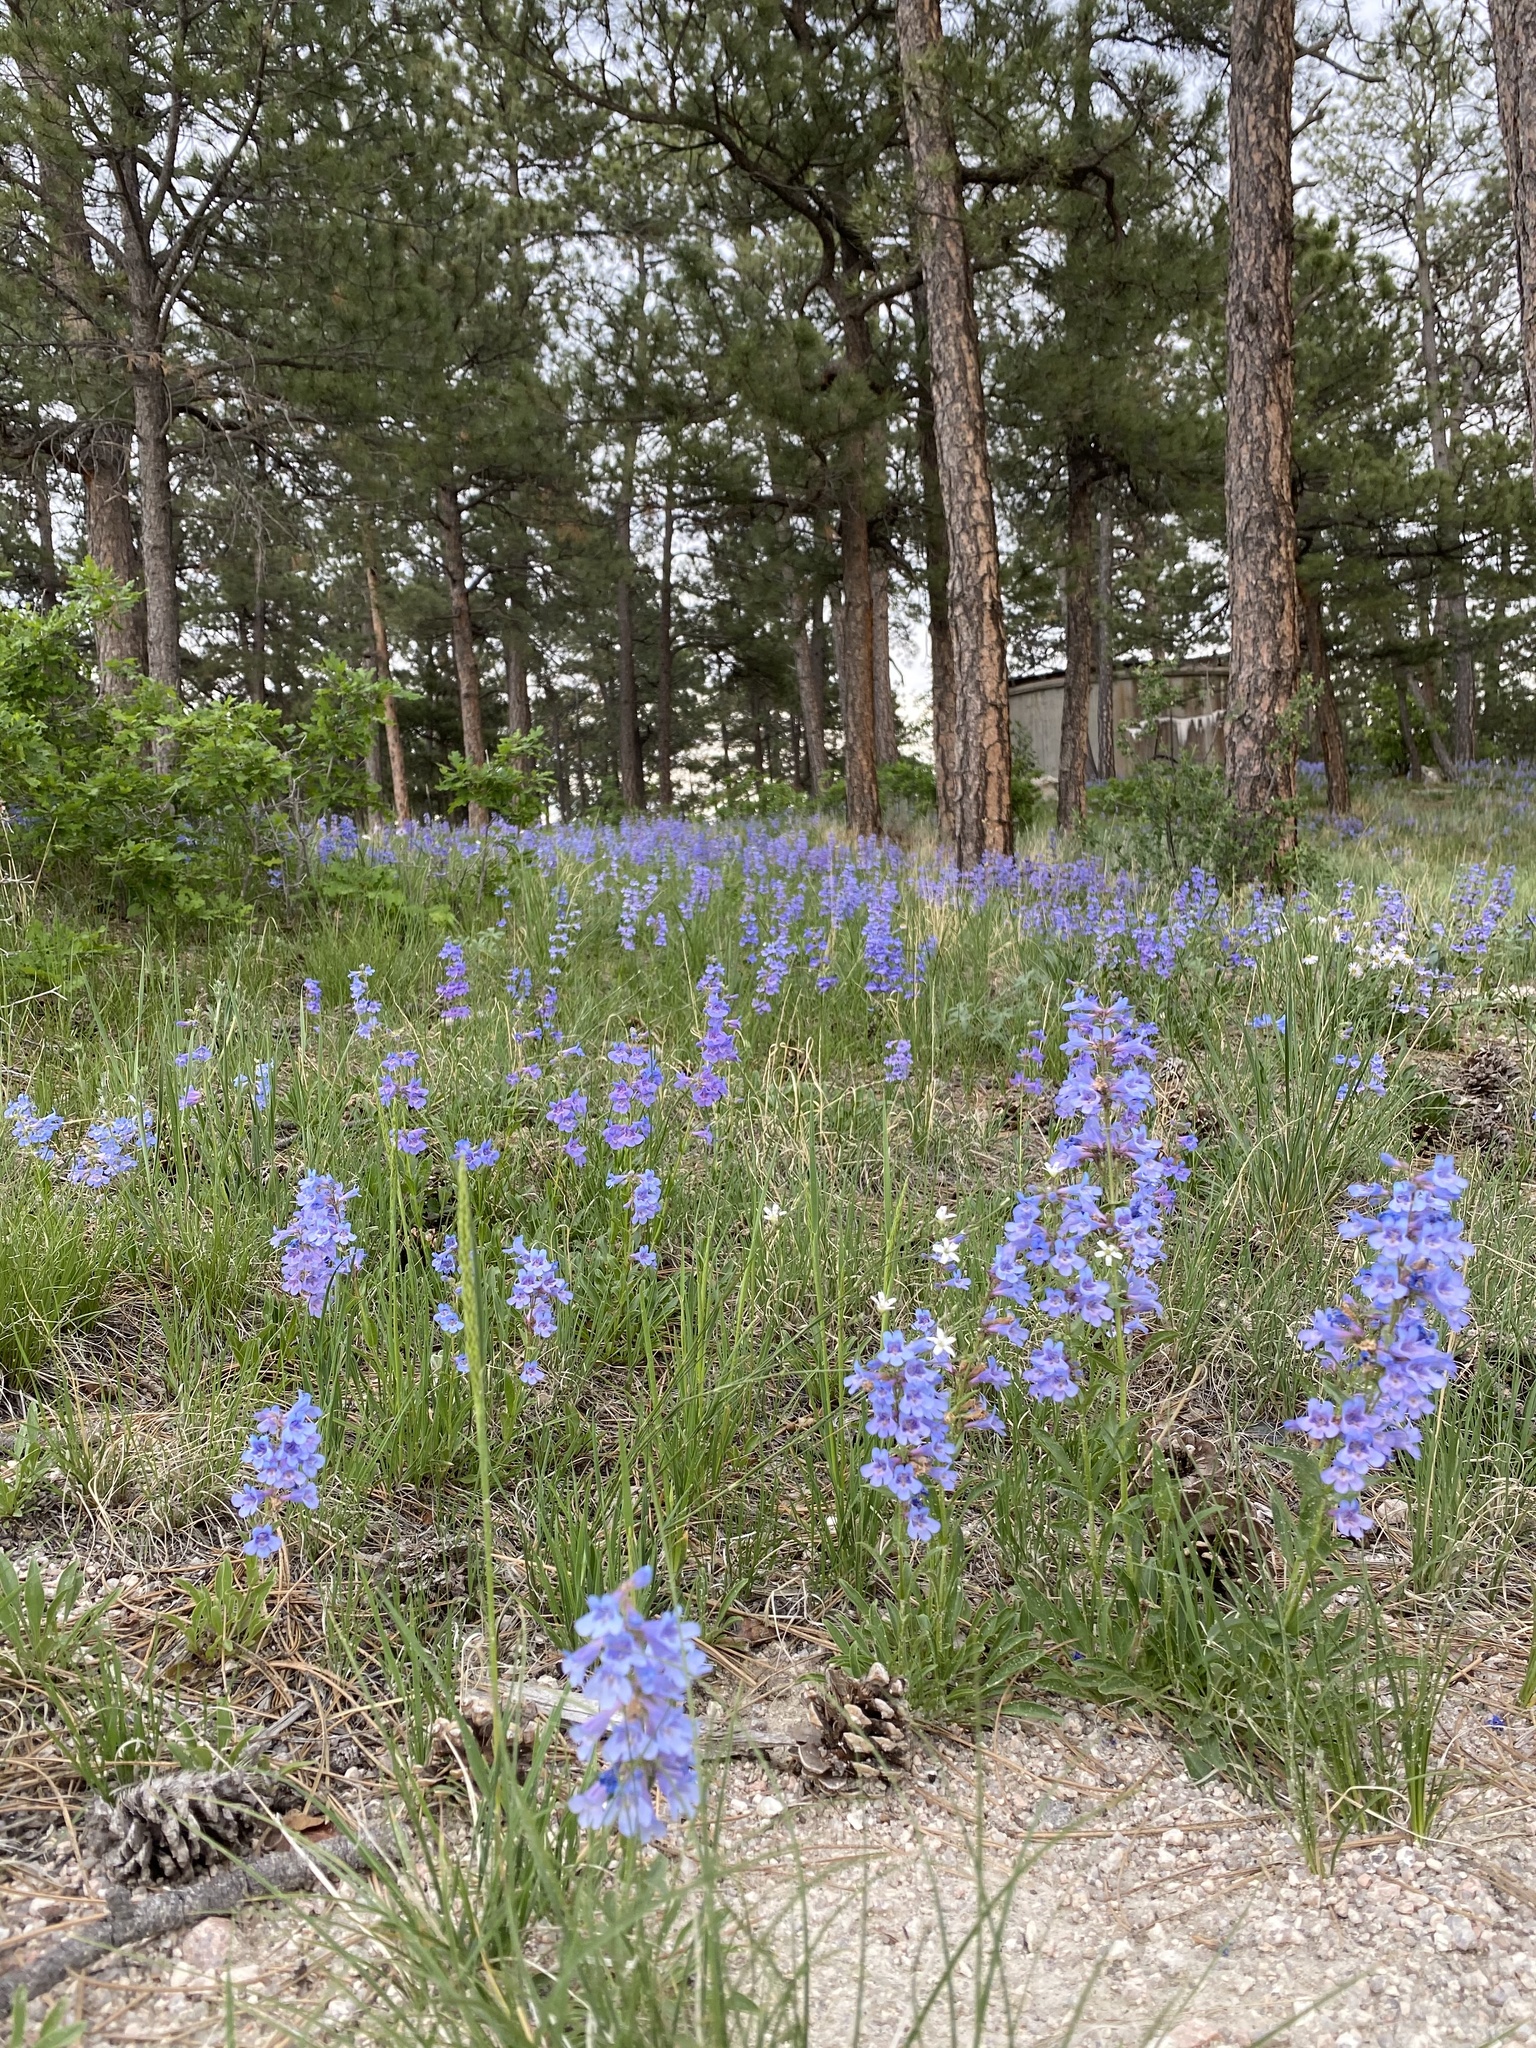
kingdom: Plantae
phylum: Tracheophyta
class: Magnoliopsida
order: Lamiales
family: Plantaginaceae
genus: Penstemon
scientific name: Penstemon virens
